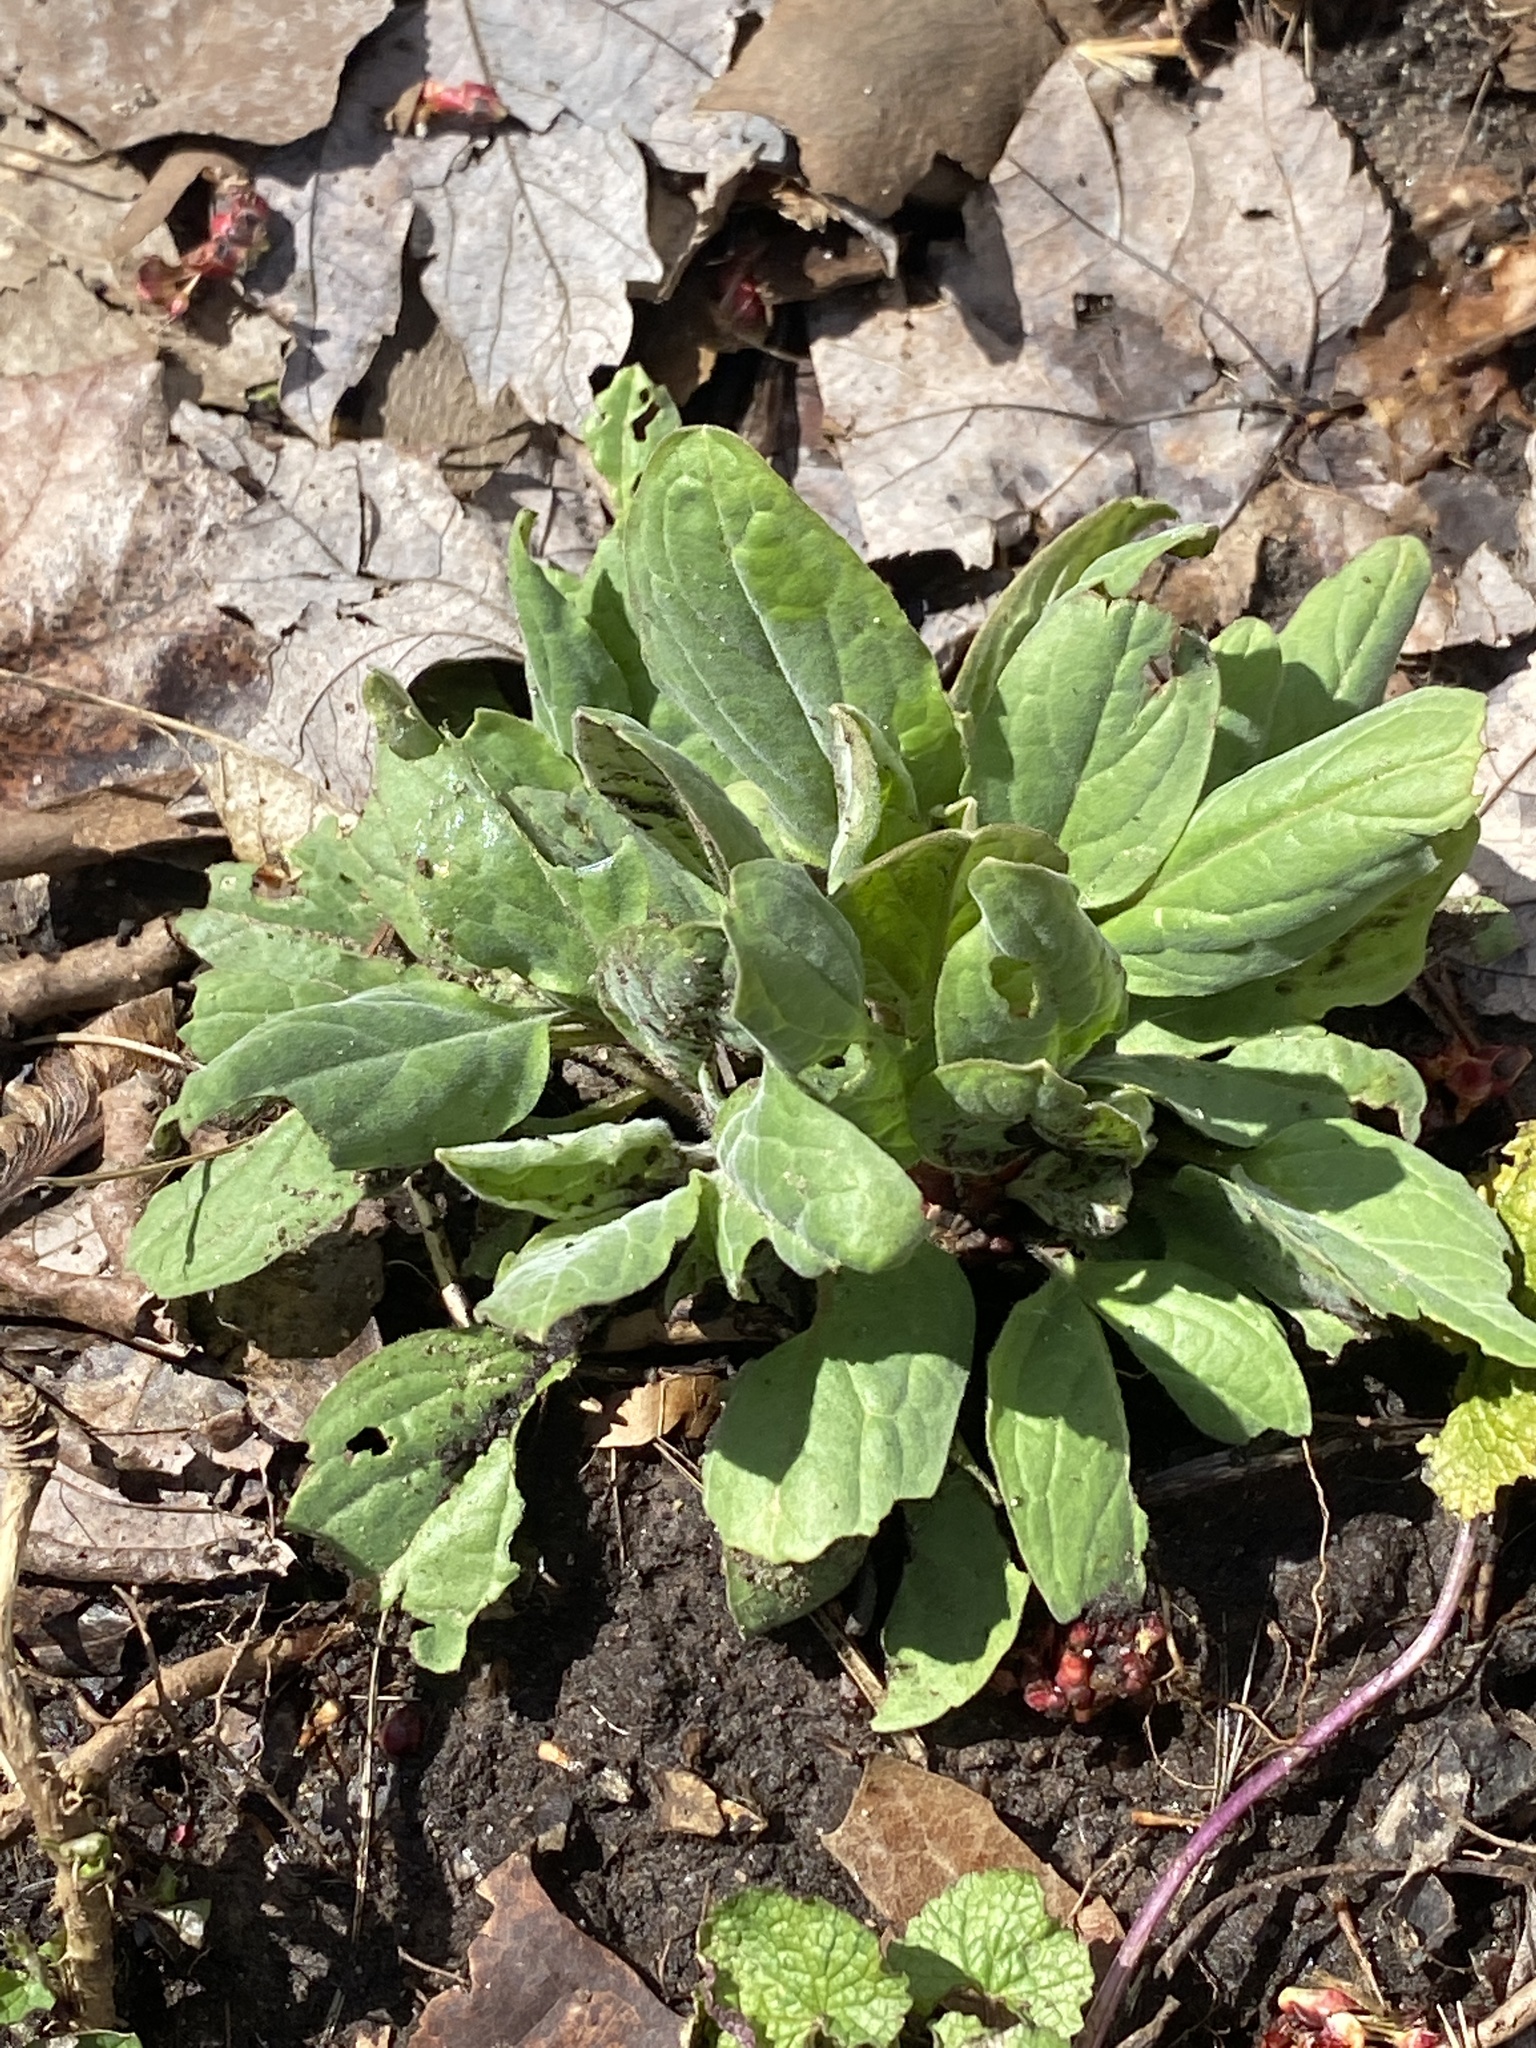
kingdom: Plantae
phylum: Tracheophyta
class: Magnoliopsida
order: Boraginales
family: Boraginaceae
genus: Hackelia
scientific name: Hackelia virginiana
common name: Beggar's-lice
